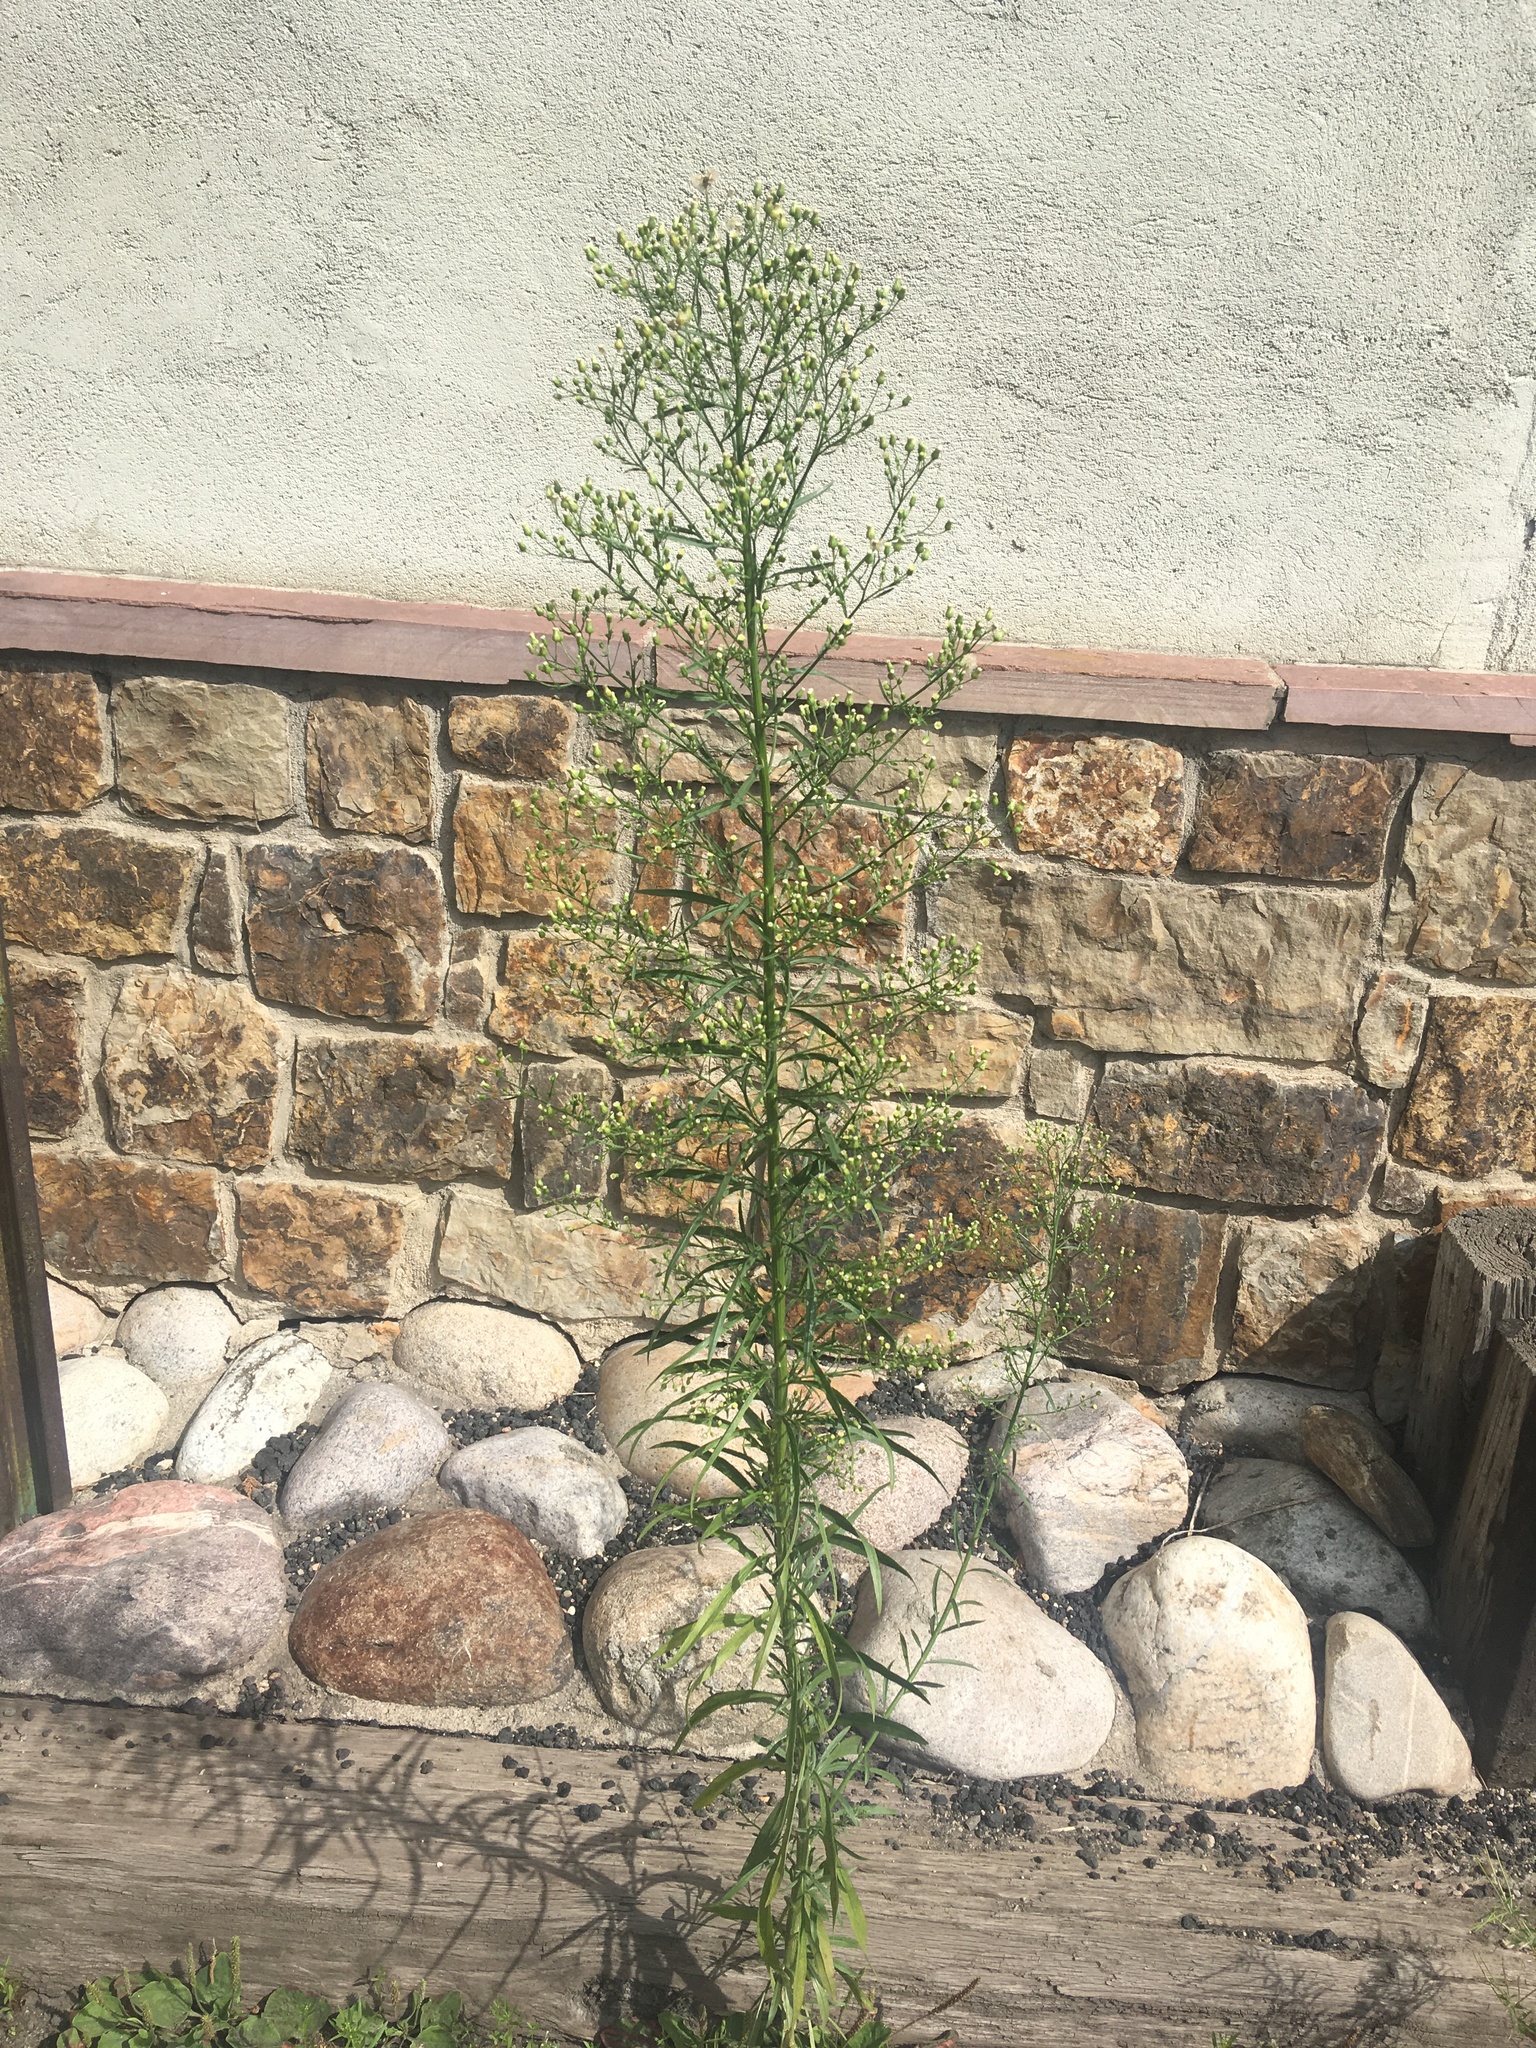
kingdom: Plantae
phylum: Tracheophyta
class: Magnoliopsida
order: Asterales
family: Asteraceae
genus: Erigeron
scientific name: Erigeron canadensis
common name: Canadian fleabane
